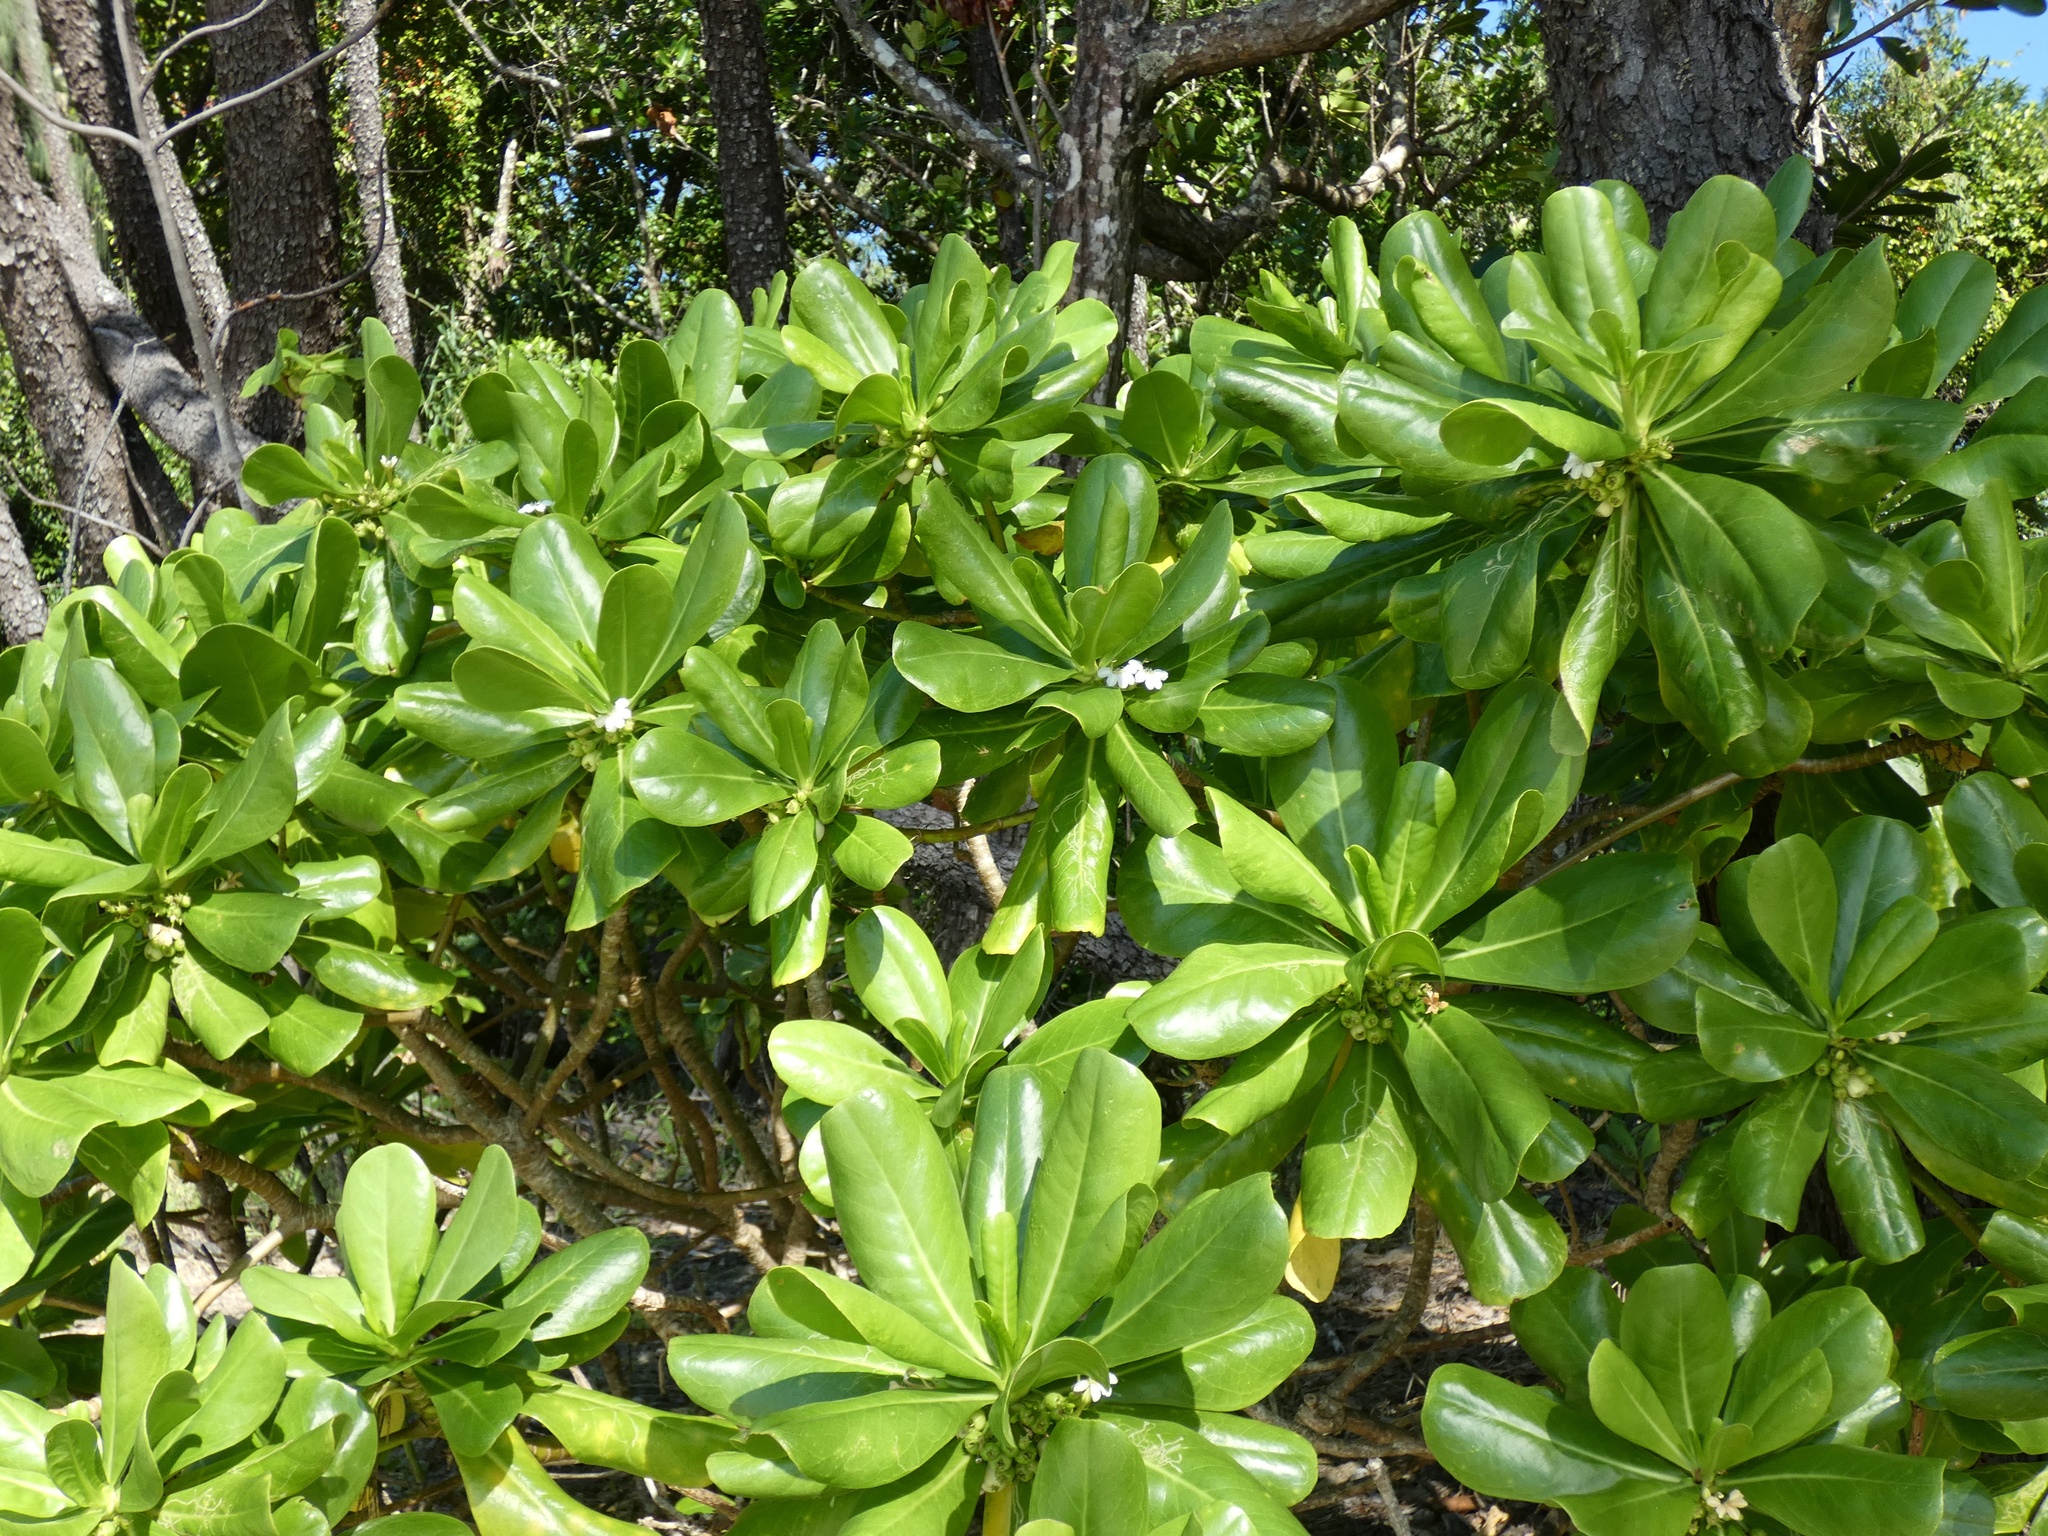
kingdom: Plantae
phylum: Tracheophyta
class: Magnoliopsida
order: Asterales
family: Goodeniaceae
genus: Scaevola
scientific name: Scaevola taccada
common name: Sea lettucetree
